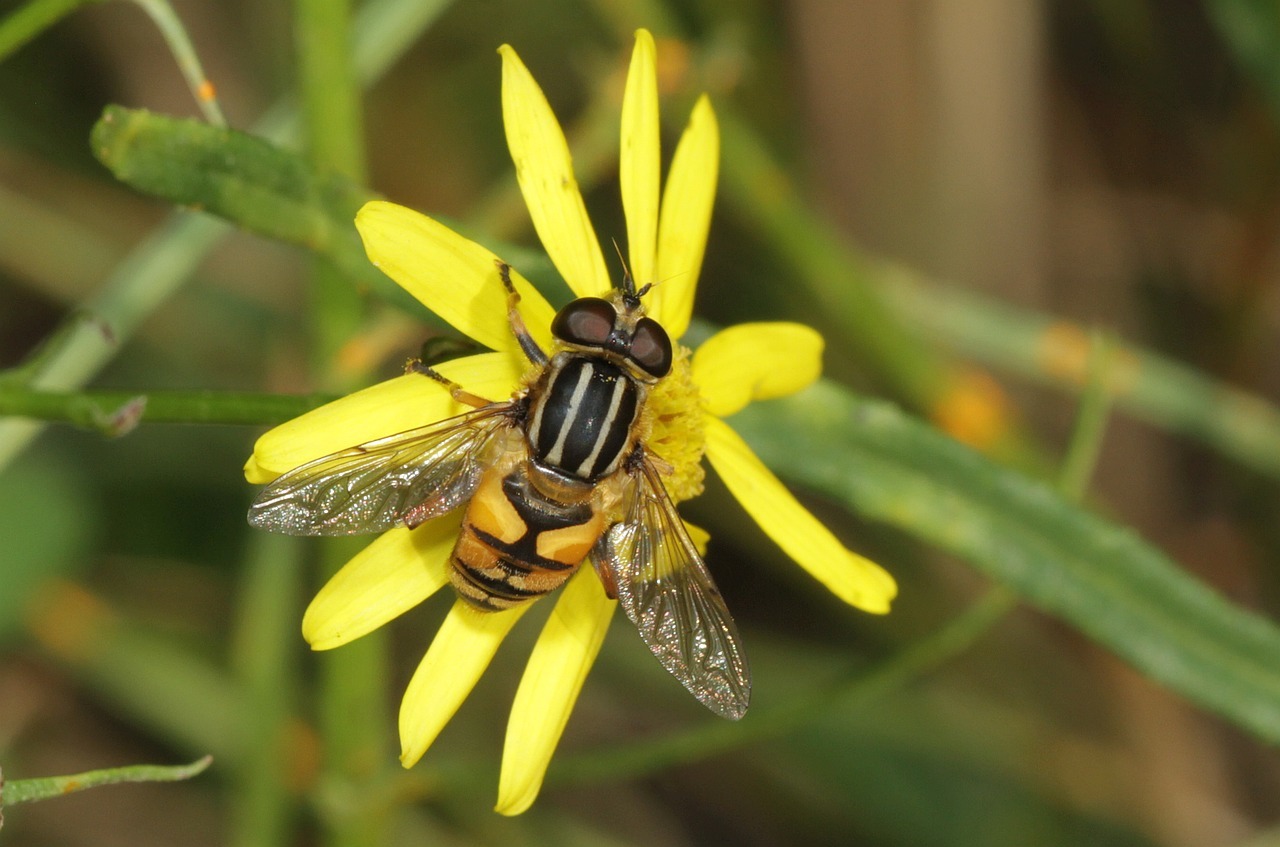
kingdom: Animalia
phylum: Arthropoda
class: Insecta
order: Diptera
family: Syrphidae
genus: Helophilus
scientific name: Helophilus pendulus
